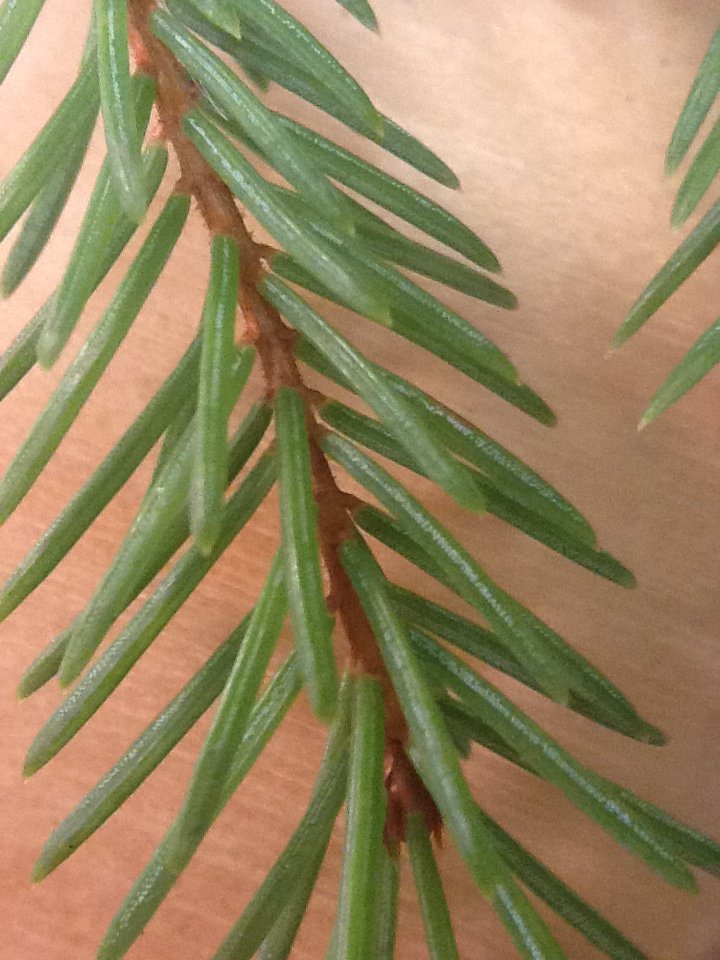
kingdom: Plantae
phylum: Tracheophyta
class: Pinopsida
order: Pinales
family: Pinaceae
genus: Picea
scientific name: Picea rubens
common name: Red spruce
